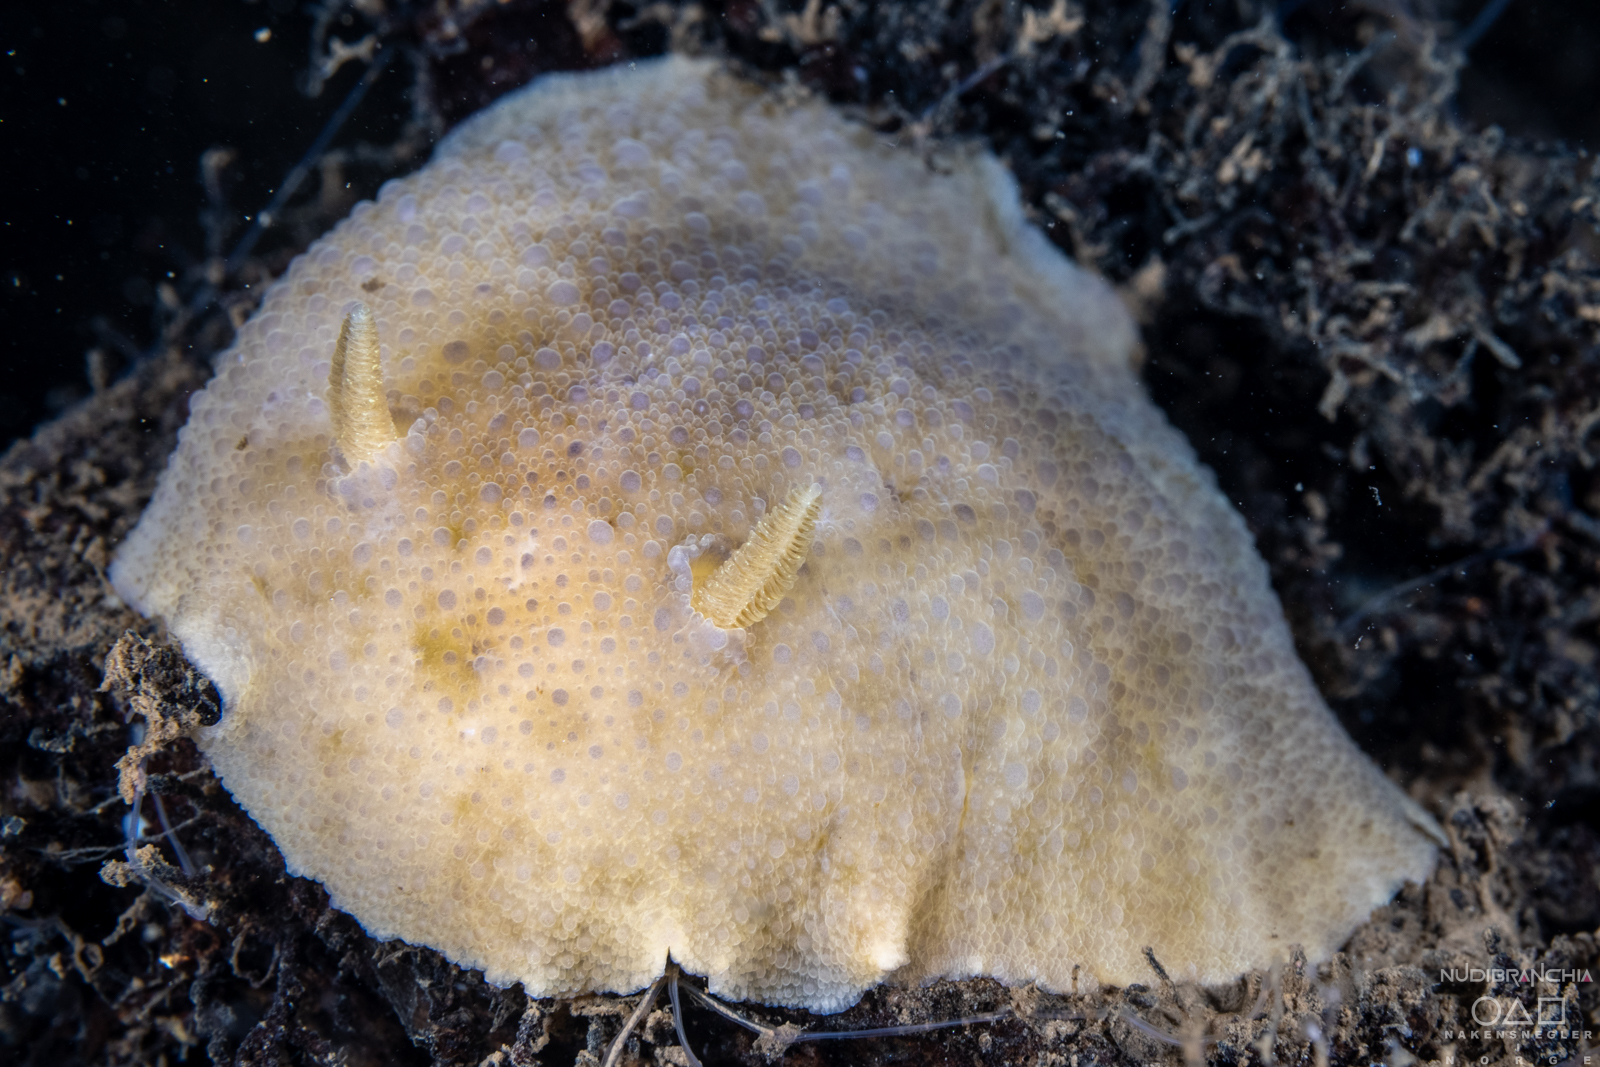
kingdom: Animalia
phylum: Mollusca
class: Gastropoda
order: Nudibranchia
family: Dorididae
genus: Doris
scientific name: Doris pseudoargus
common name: Sea lemon
